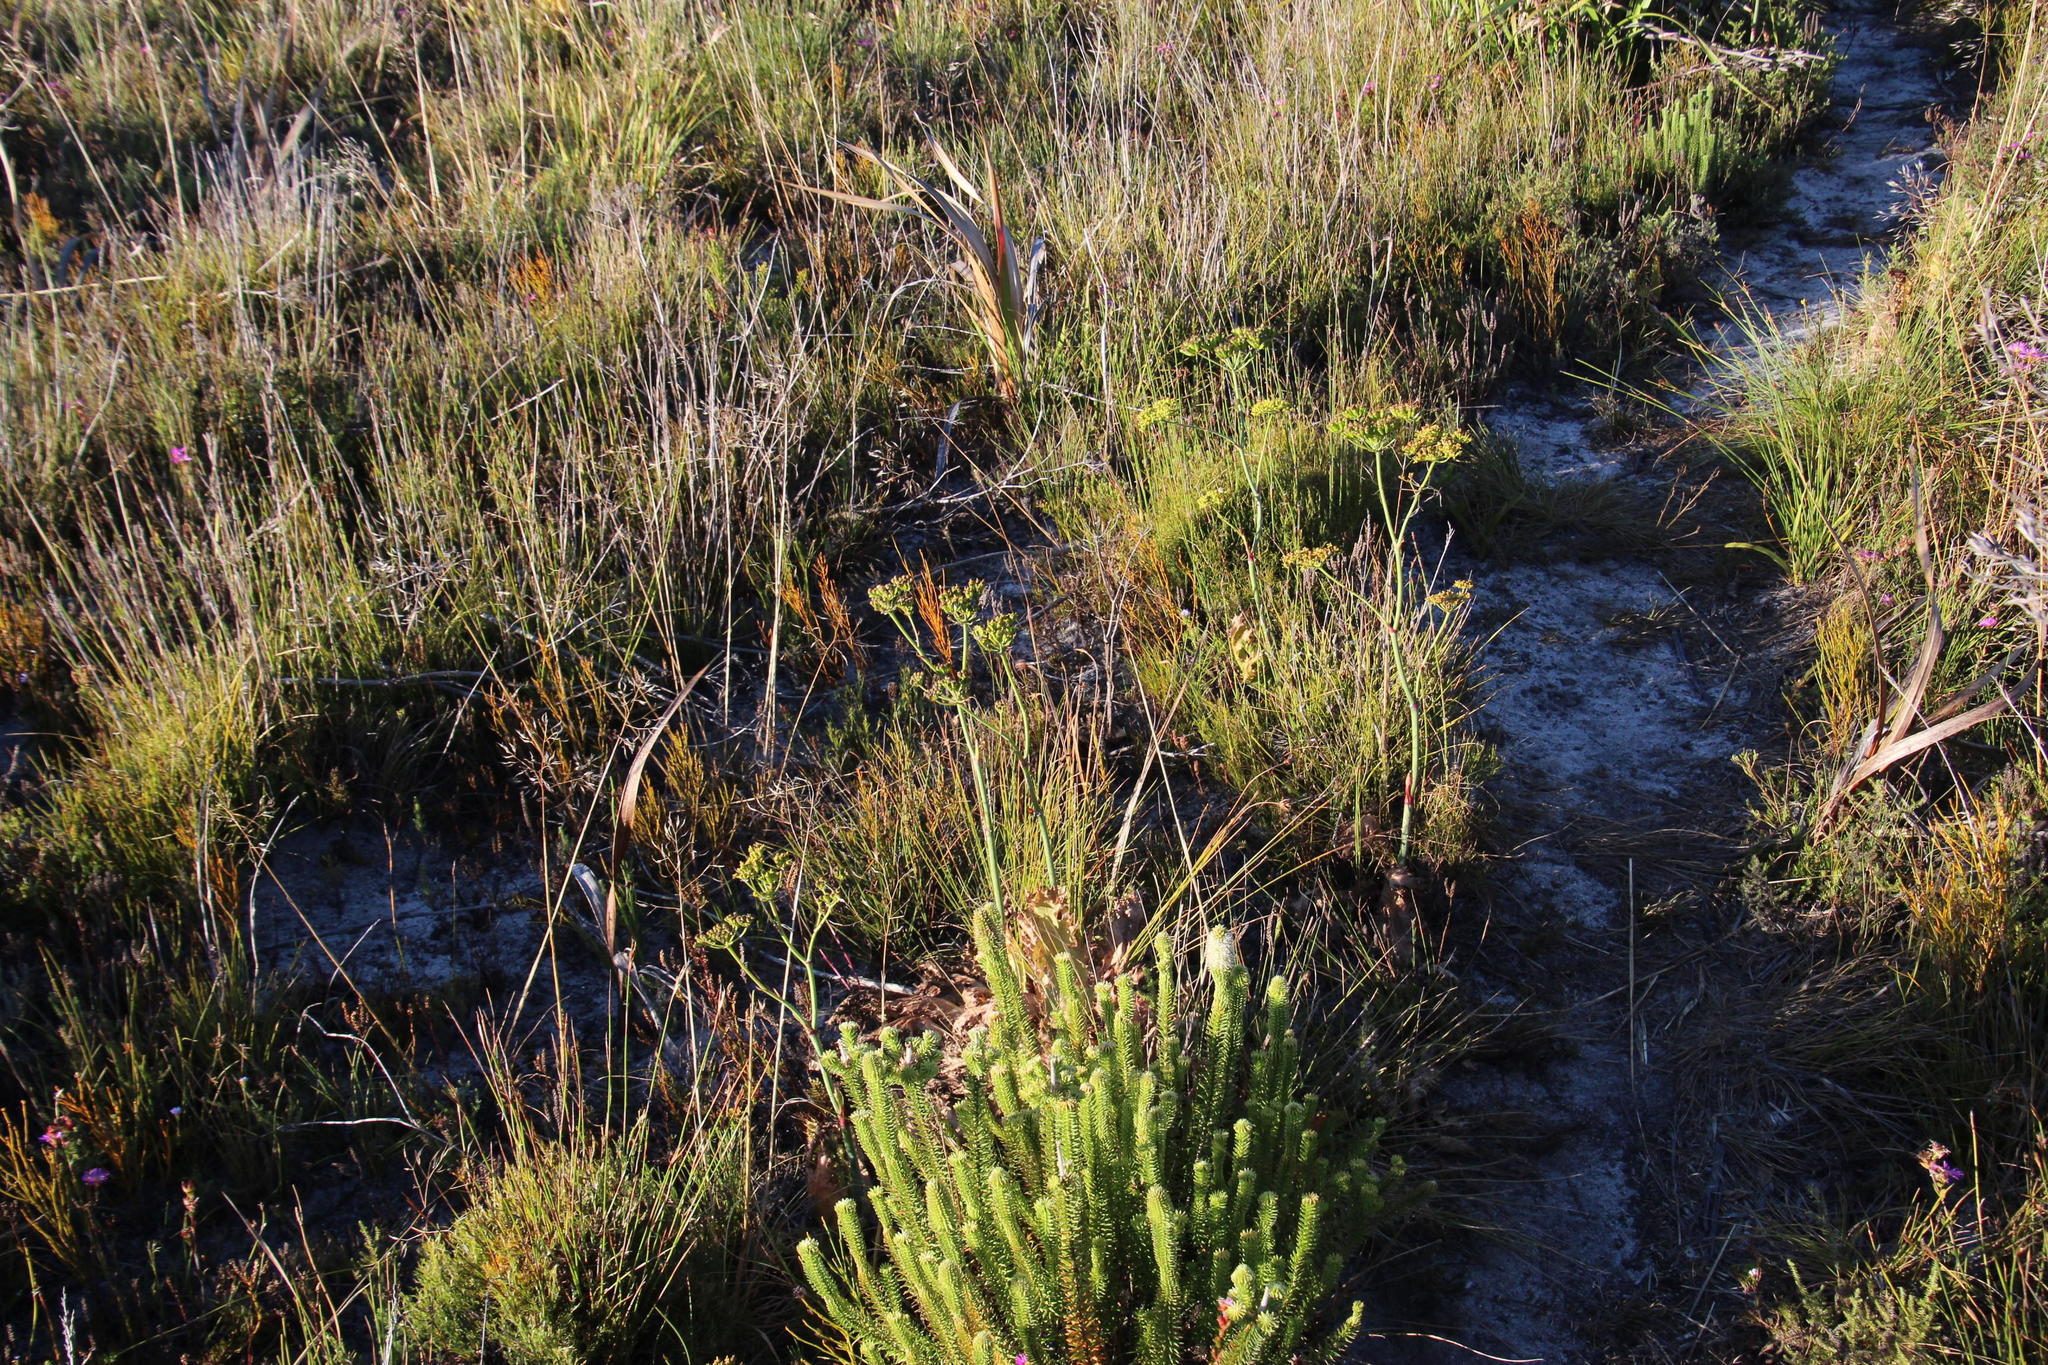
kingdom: Plantae
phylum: Tracheophyta
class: Magnoliopsida
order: Apiales
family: Apiaceae
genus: Lichtensteinia
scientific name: Lichtensteinia lacera
